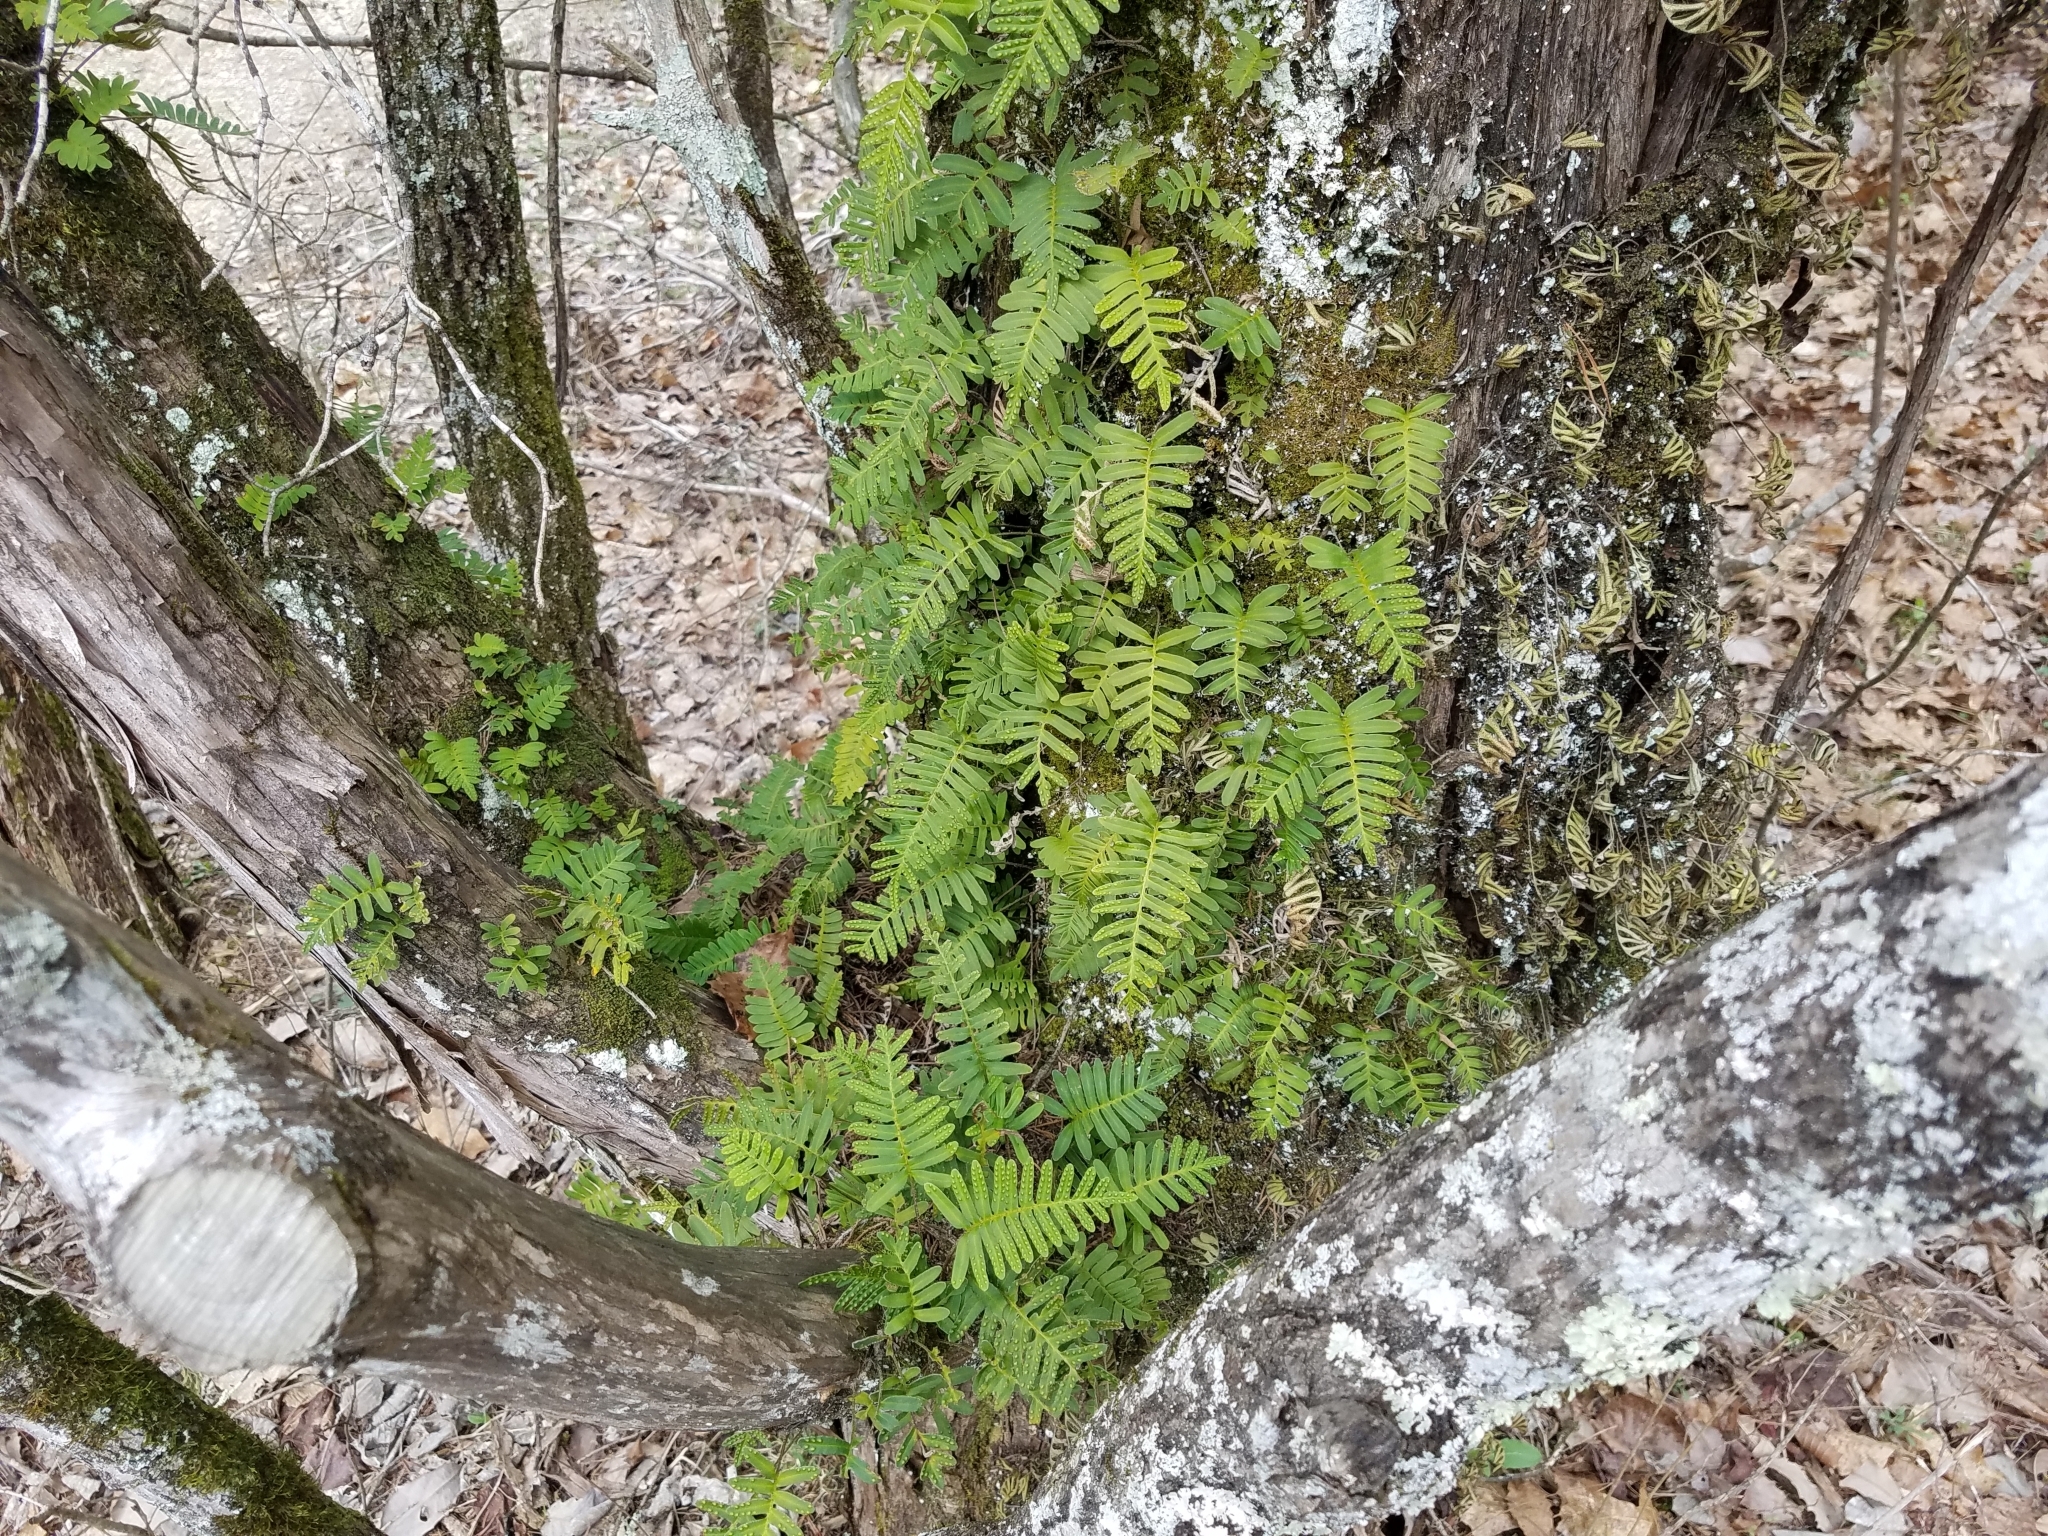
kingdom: Plantae
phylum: Tracheophyta
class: Polypodiopsida
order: Polypodiales
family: Polypodiaceae
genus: Pleopeltis
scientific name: Pleopeltis michauxiana
